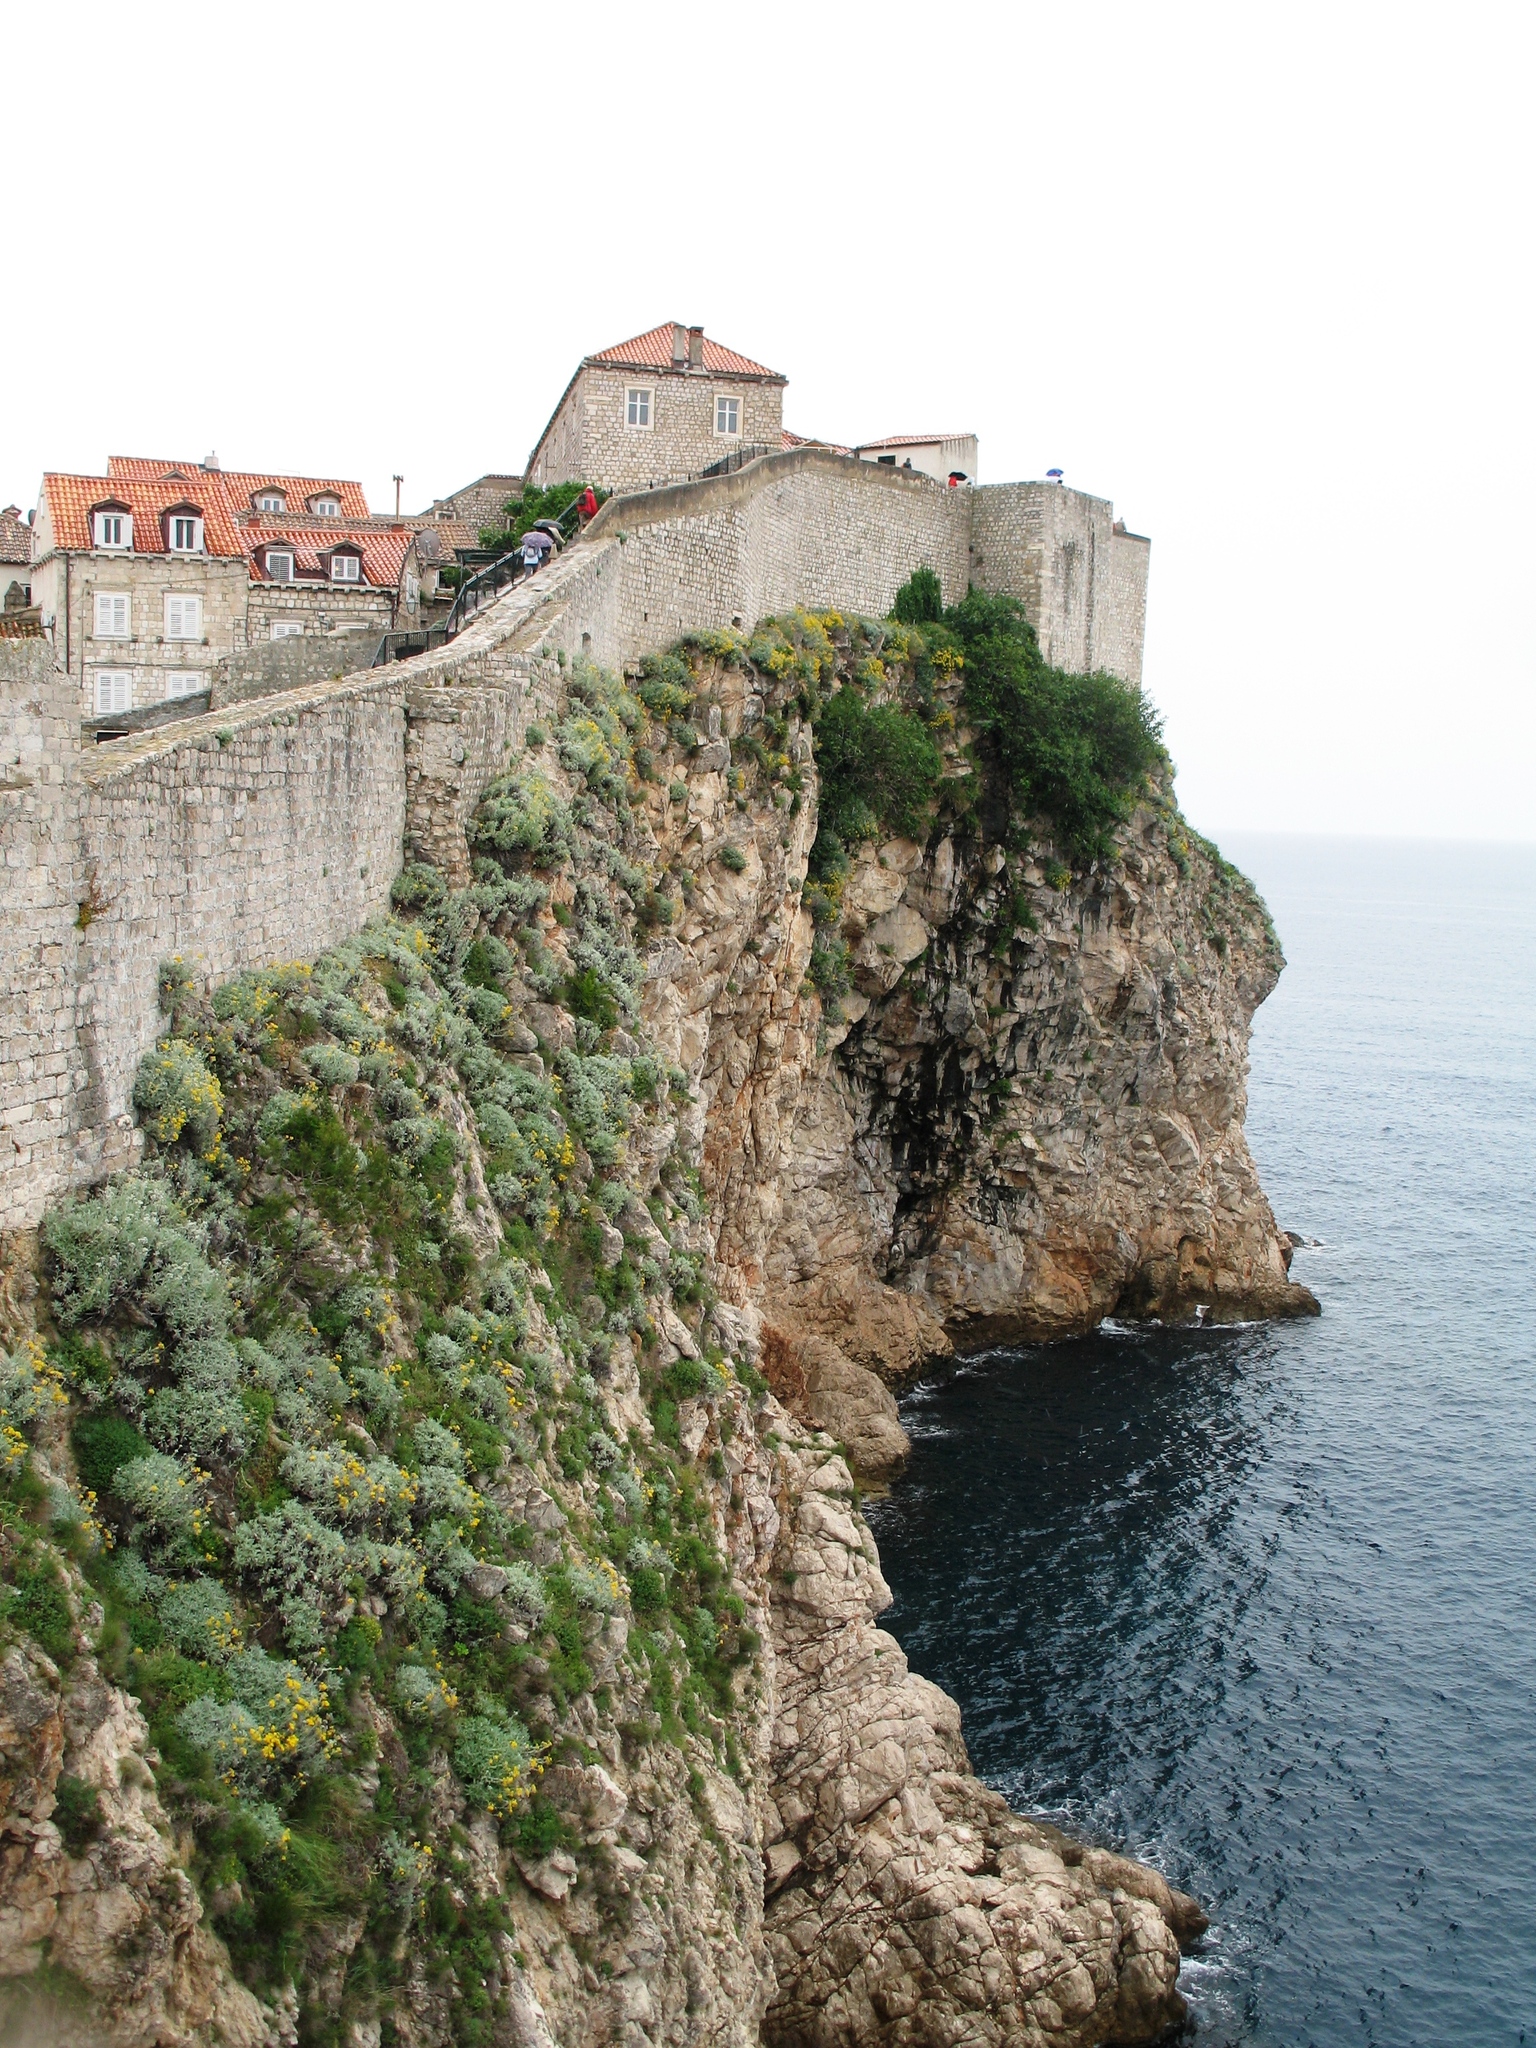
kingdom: Plantae
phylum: Tracheophyta
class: Magnoliopsida
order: Asterales
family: Asteraceae
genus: Jacobaea
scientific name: Jacobaea maritima
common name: Silver ragwort
